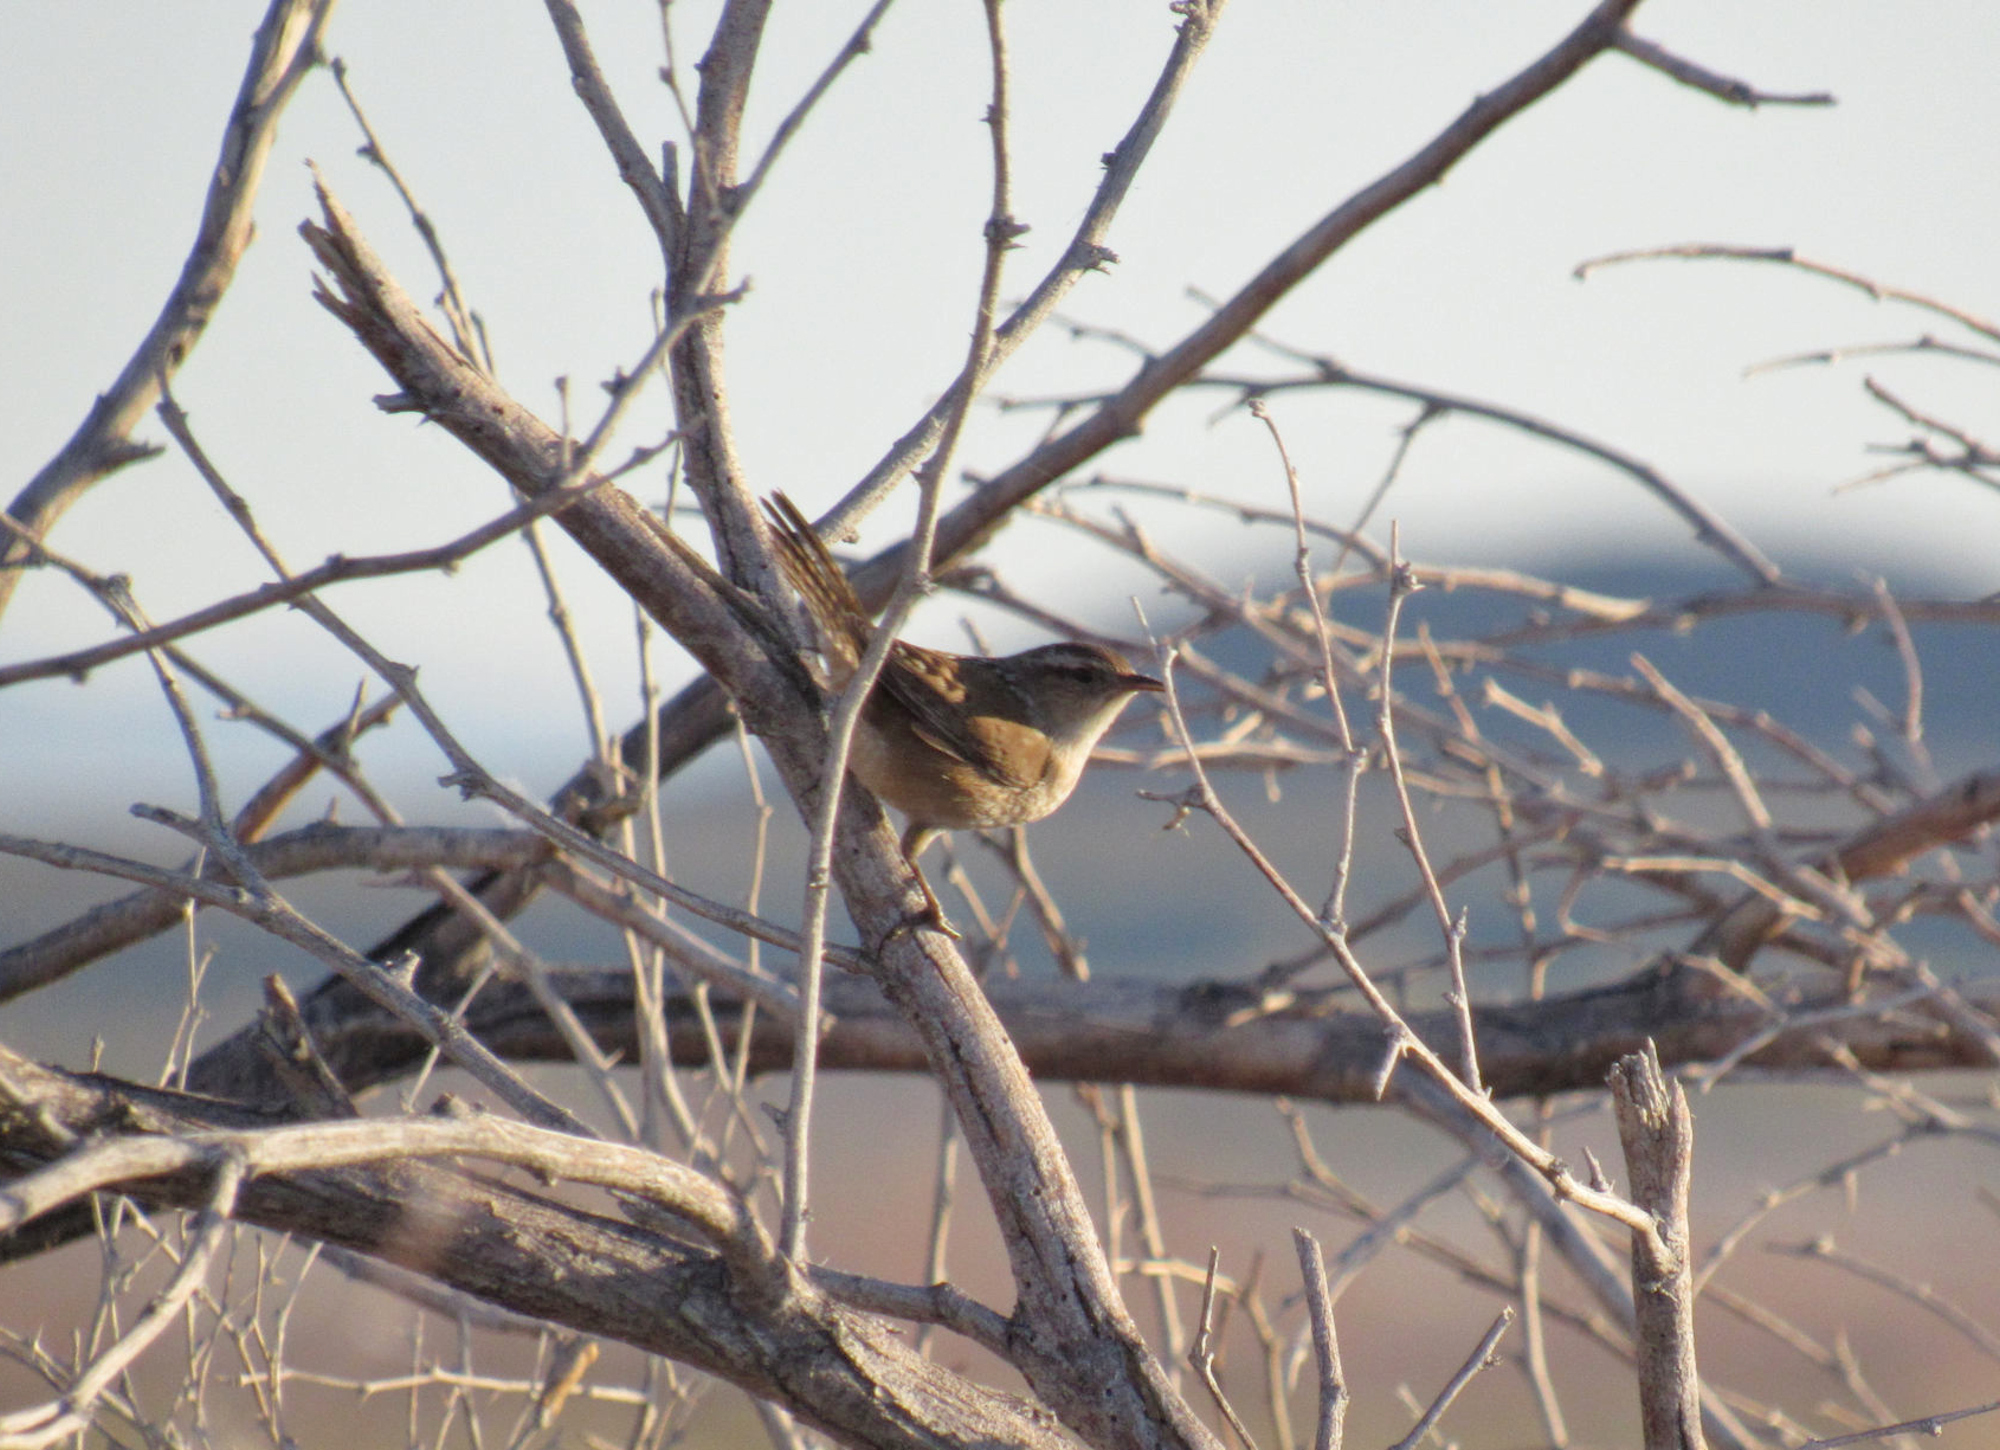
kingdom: Animalia
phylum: Chordata
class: Aves
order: Passeriformes
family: Troglodytidae
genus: Cistothorus
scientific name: Cistothorus palustris
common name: Marsh wren
